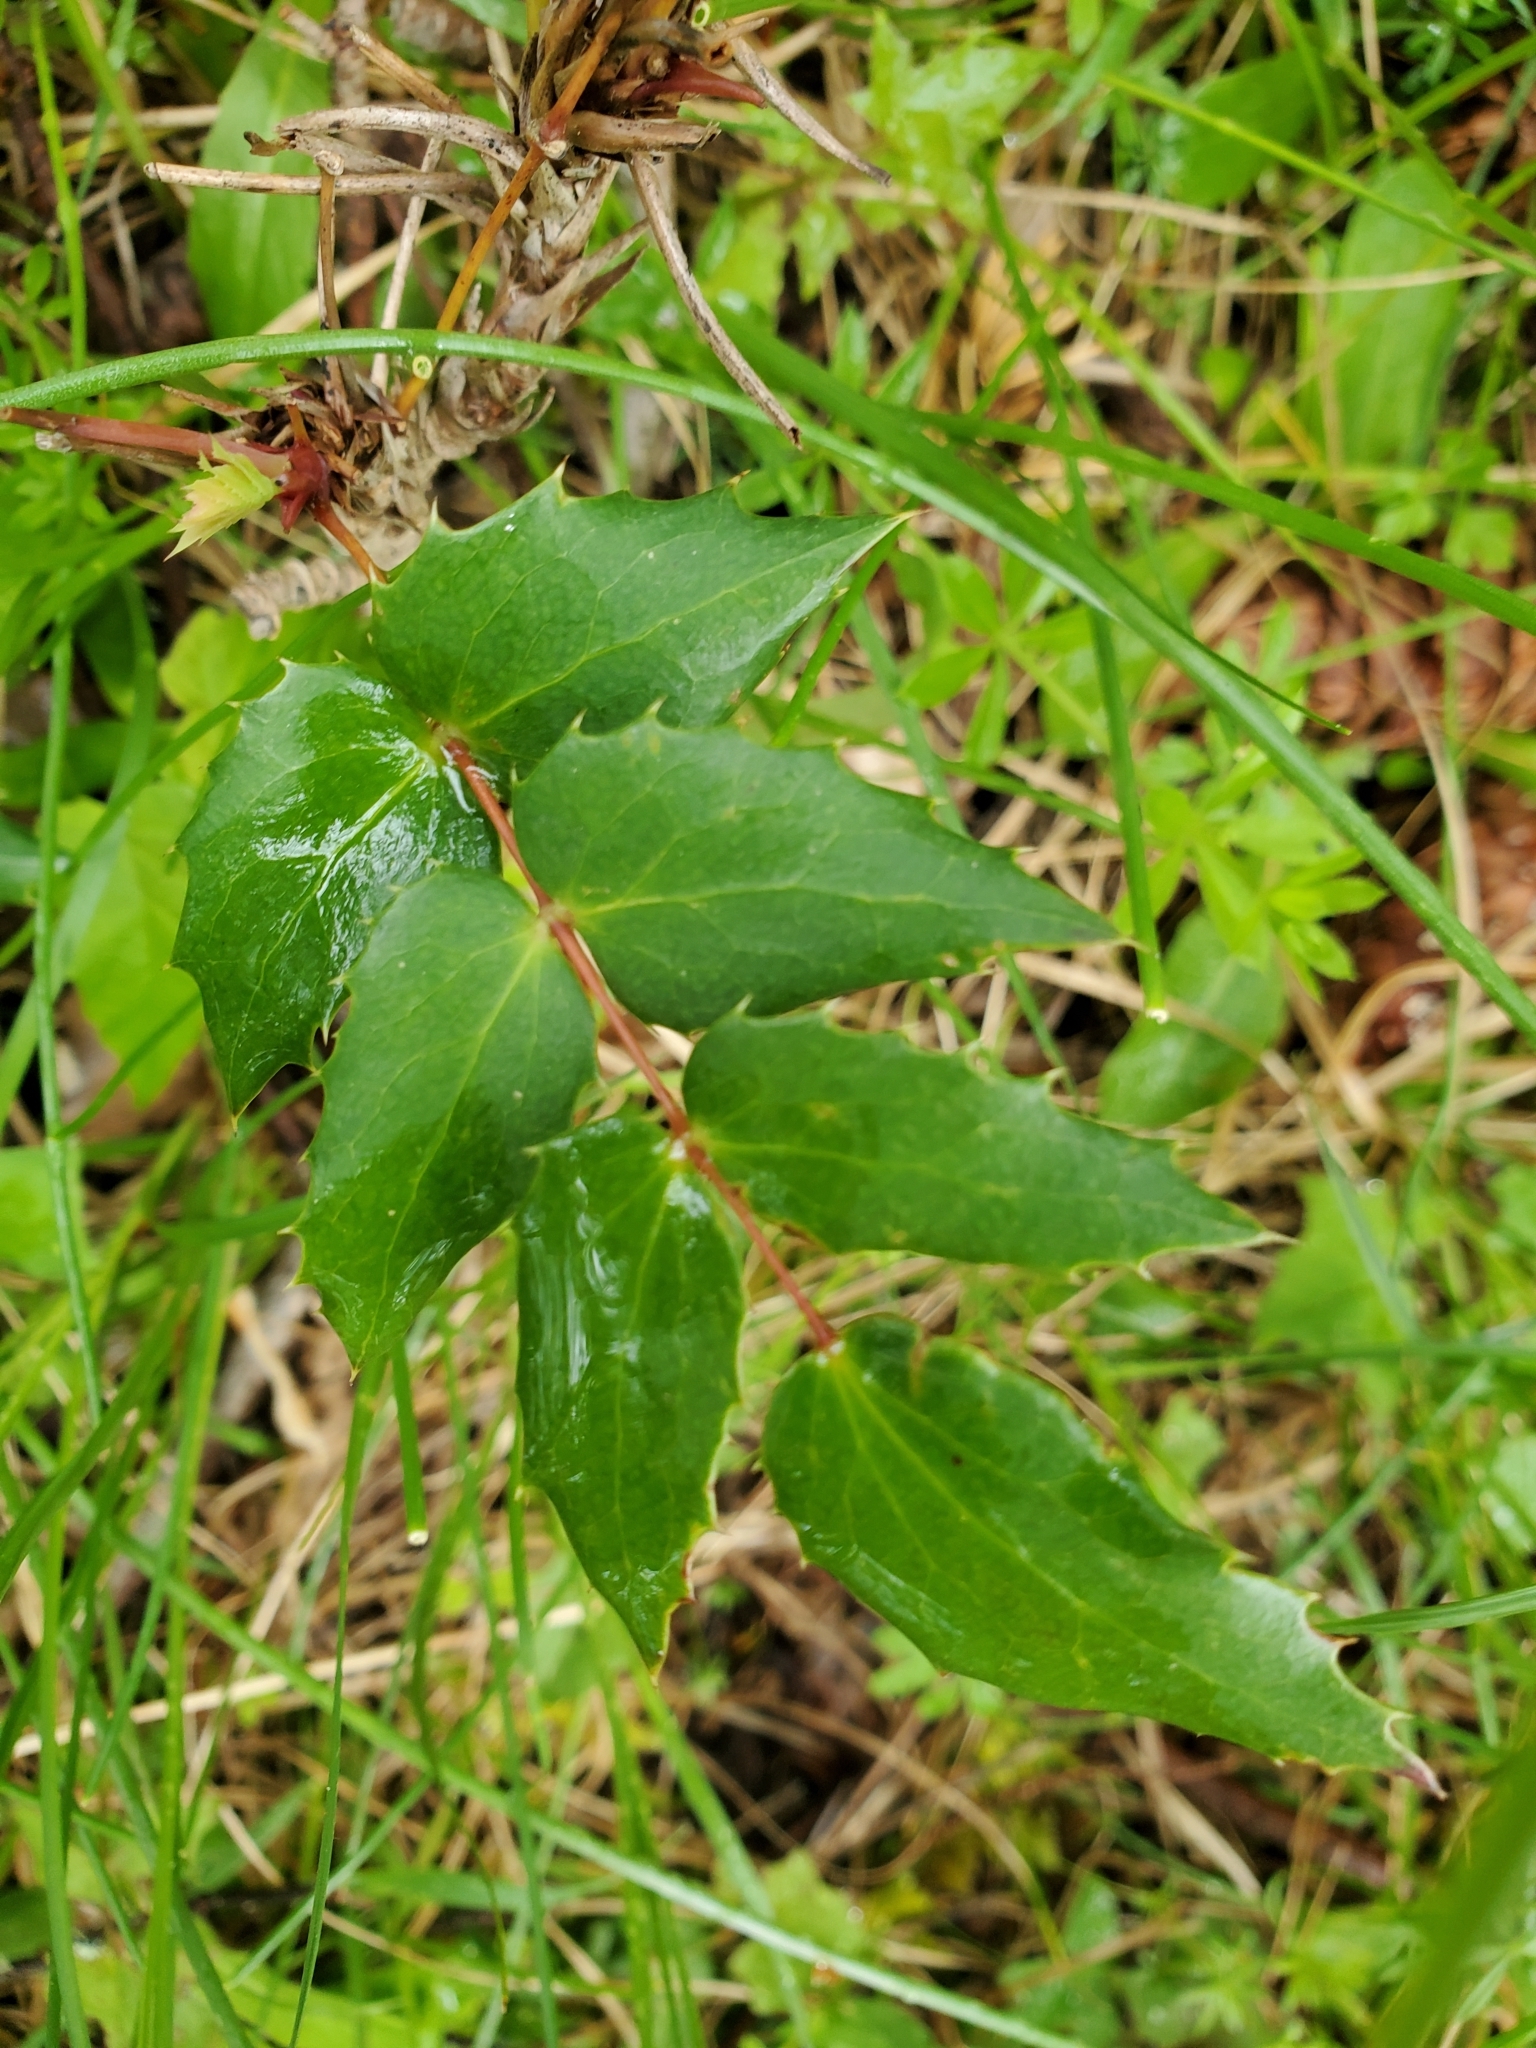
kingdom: Plantae
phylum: Tracheophyta
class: Magnoliopsida
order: Ranunculales
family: Berberidaceae
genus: Mahonia
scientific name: Mahonia aquifolium
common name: Oregon-grape
